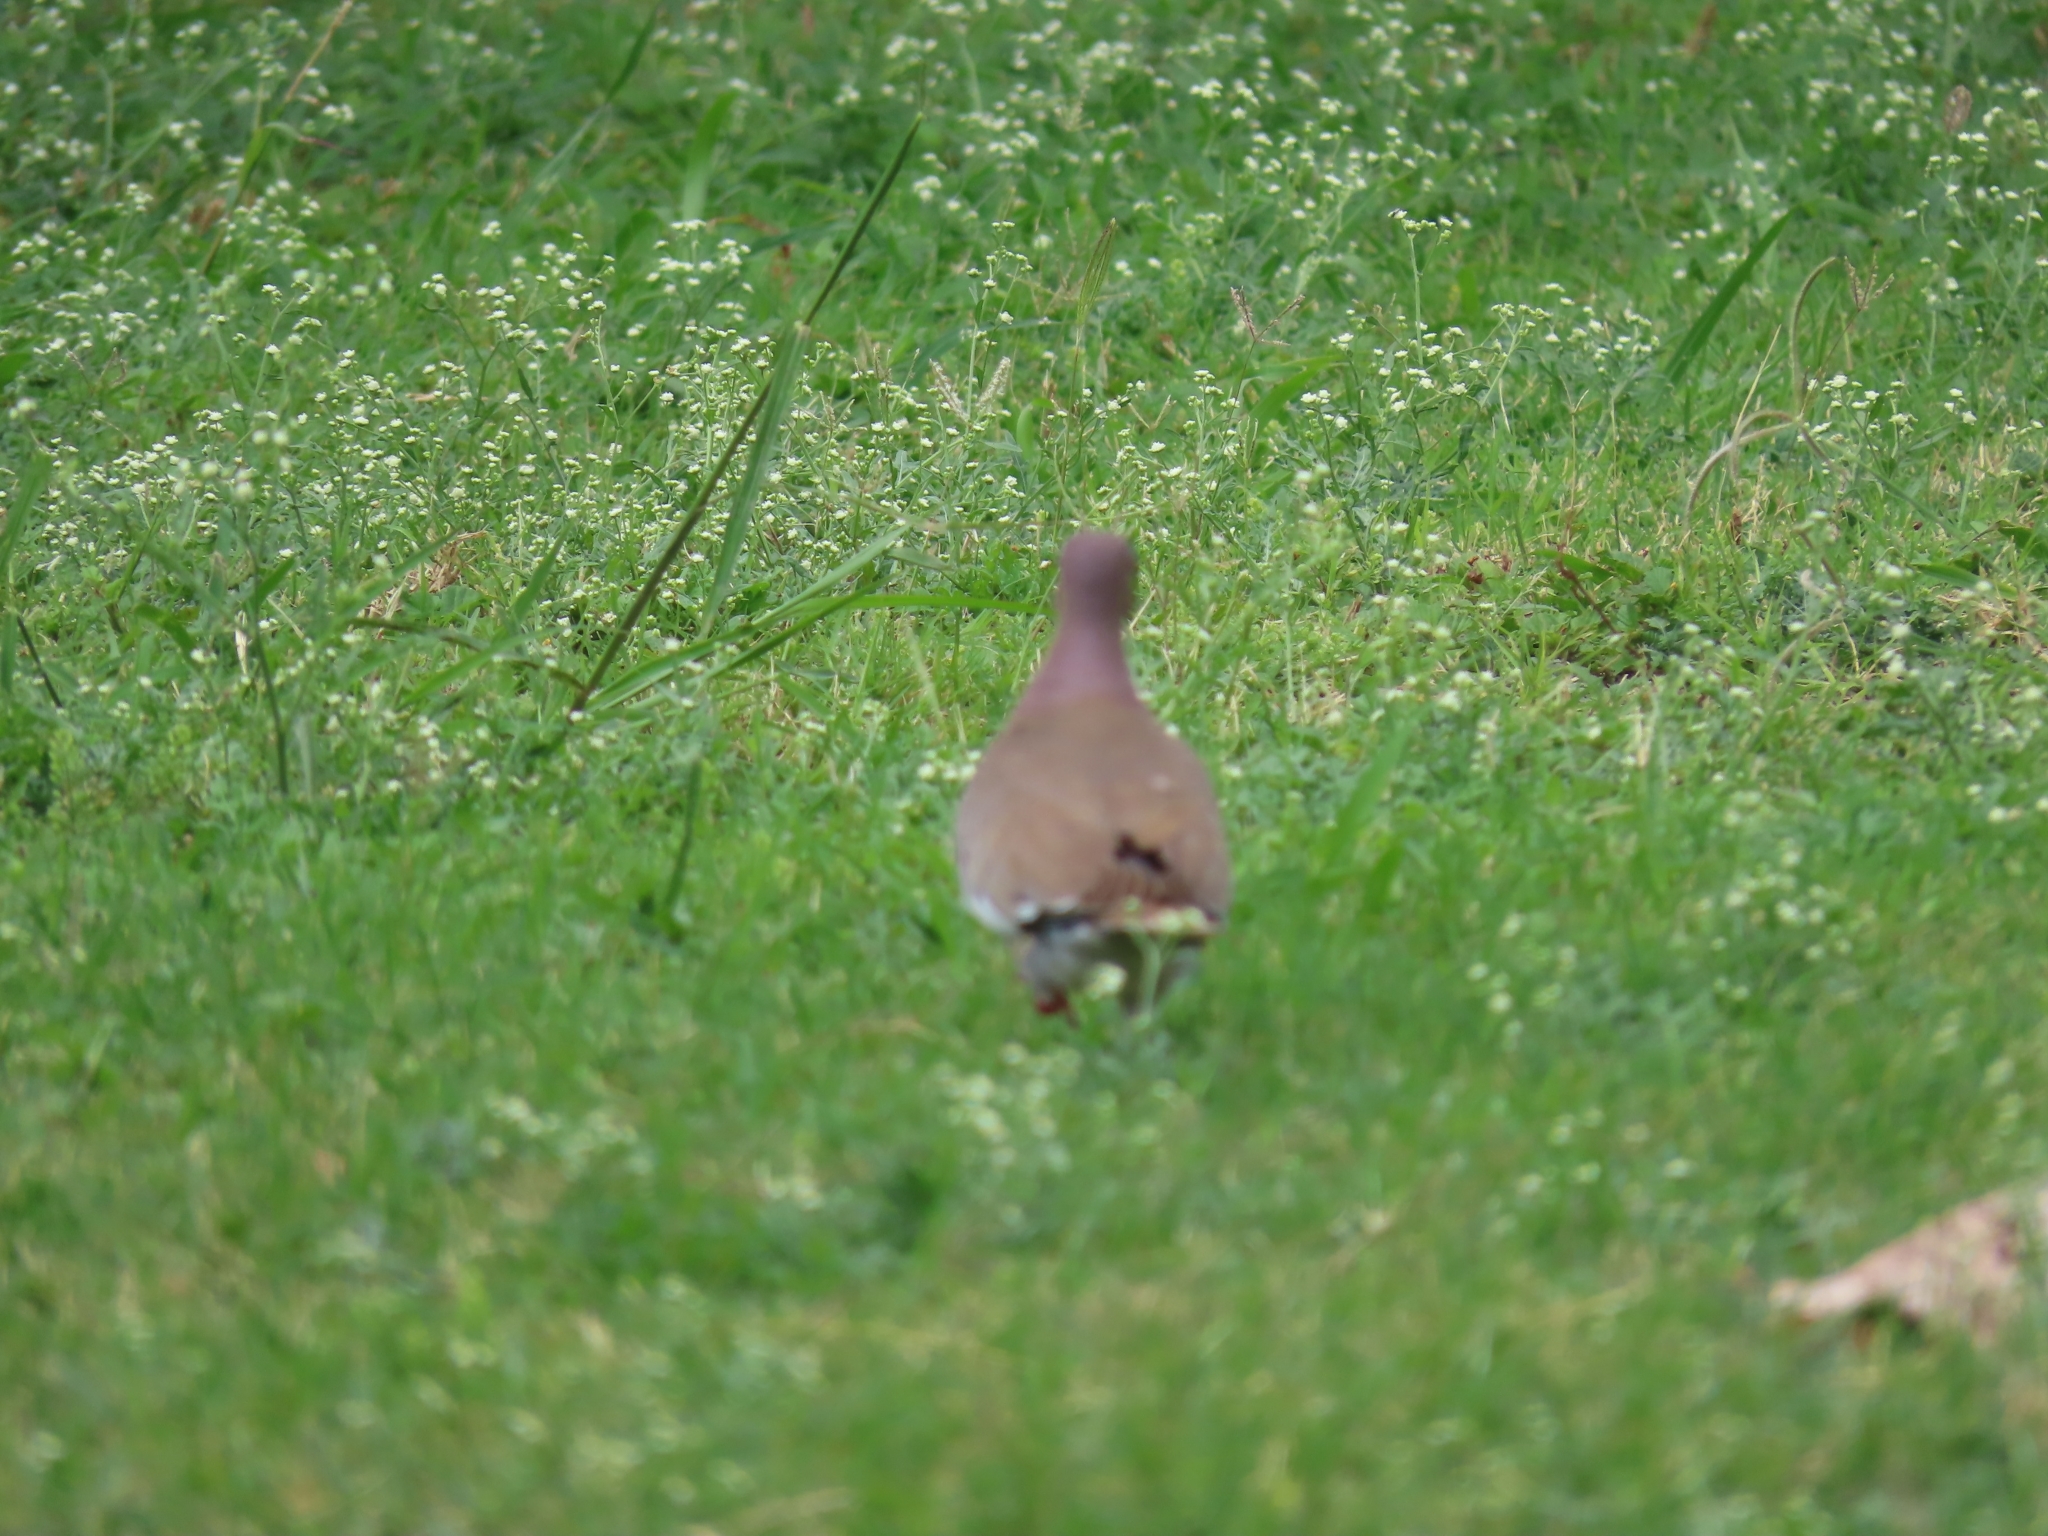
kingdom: Animalia
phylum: Chordata
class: Aves
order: Columbiformes
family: Columbidae
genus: Zenaida
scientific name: Zenaida asiatica
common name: White-winged dove
